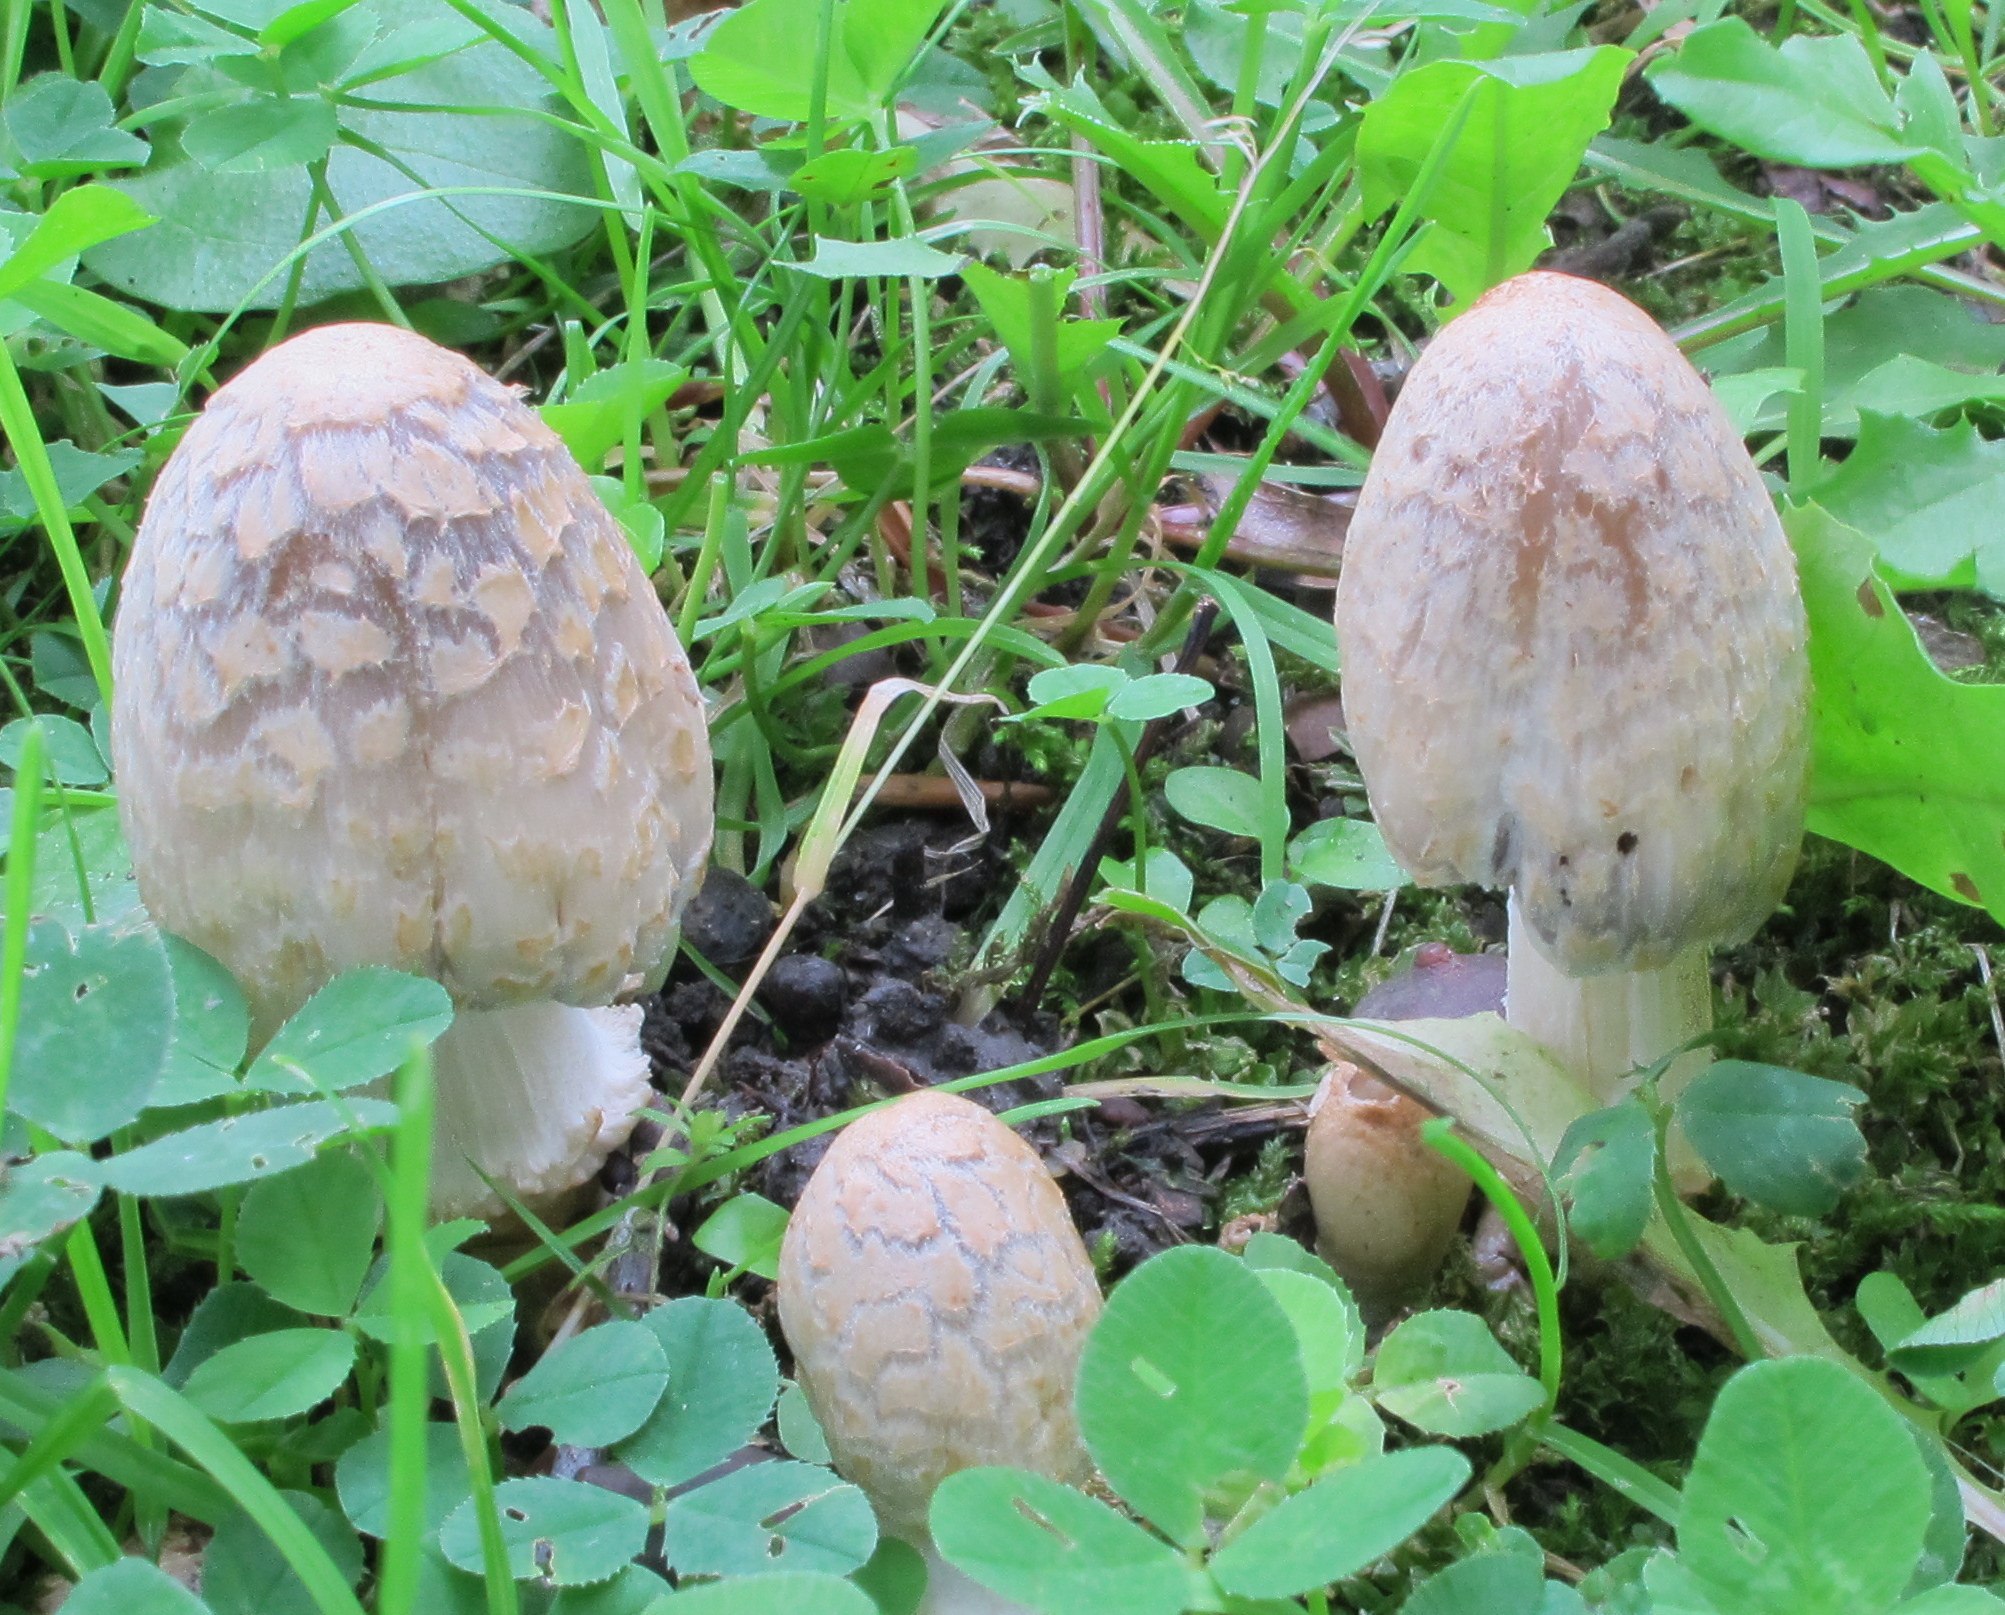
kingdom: Fungi
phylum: Basidiomycota
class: Agaricomycetes
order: Agaricales
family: Psathyrellaceae
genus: Coprinopsis
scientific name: Coprinopsis variegata
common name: Scaly ink cap
